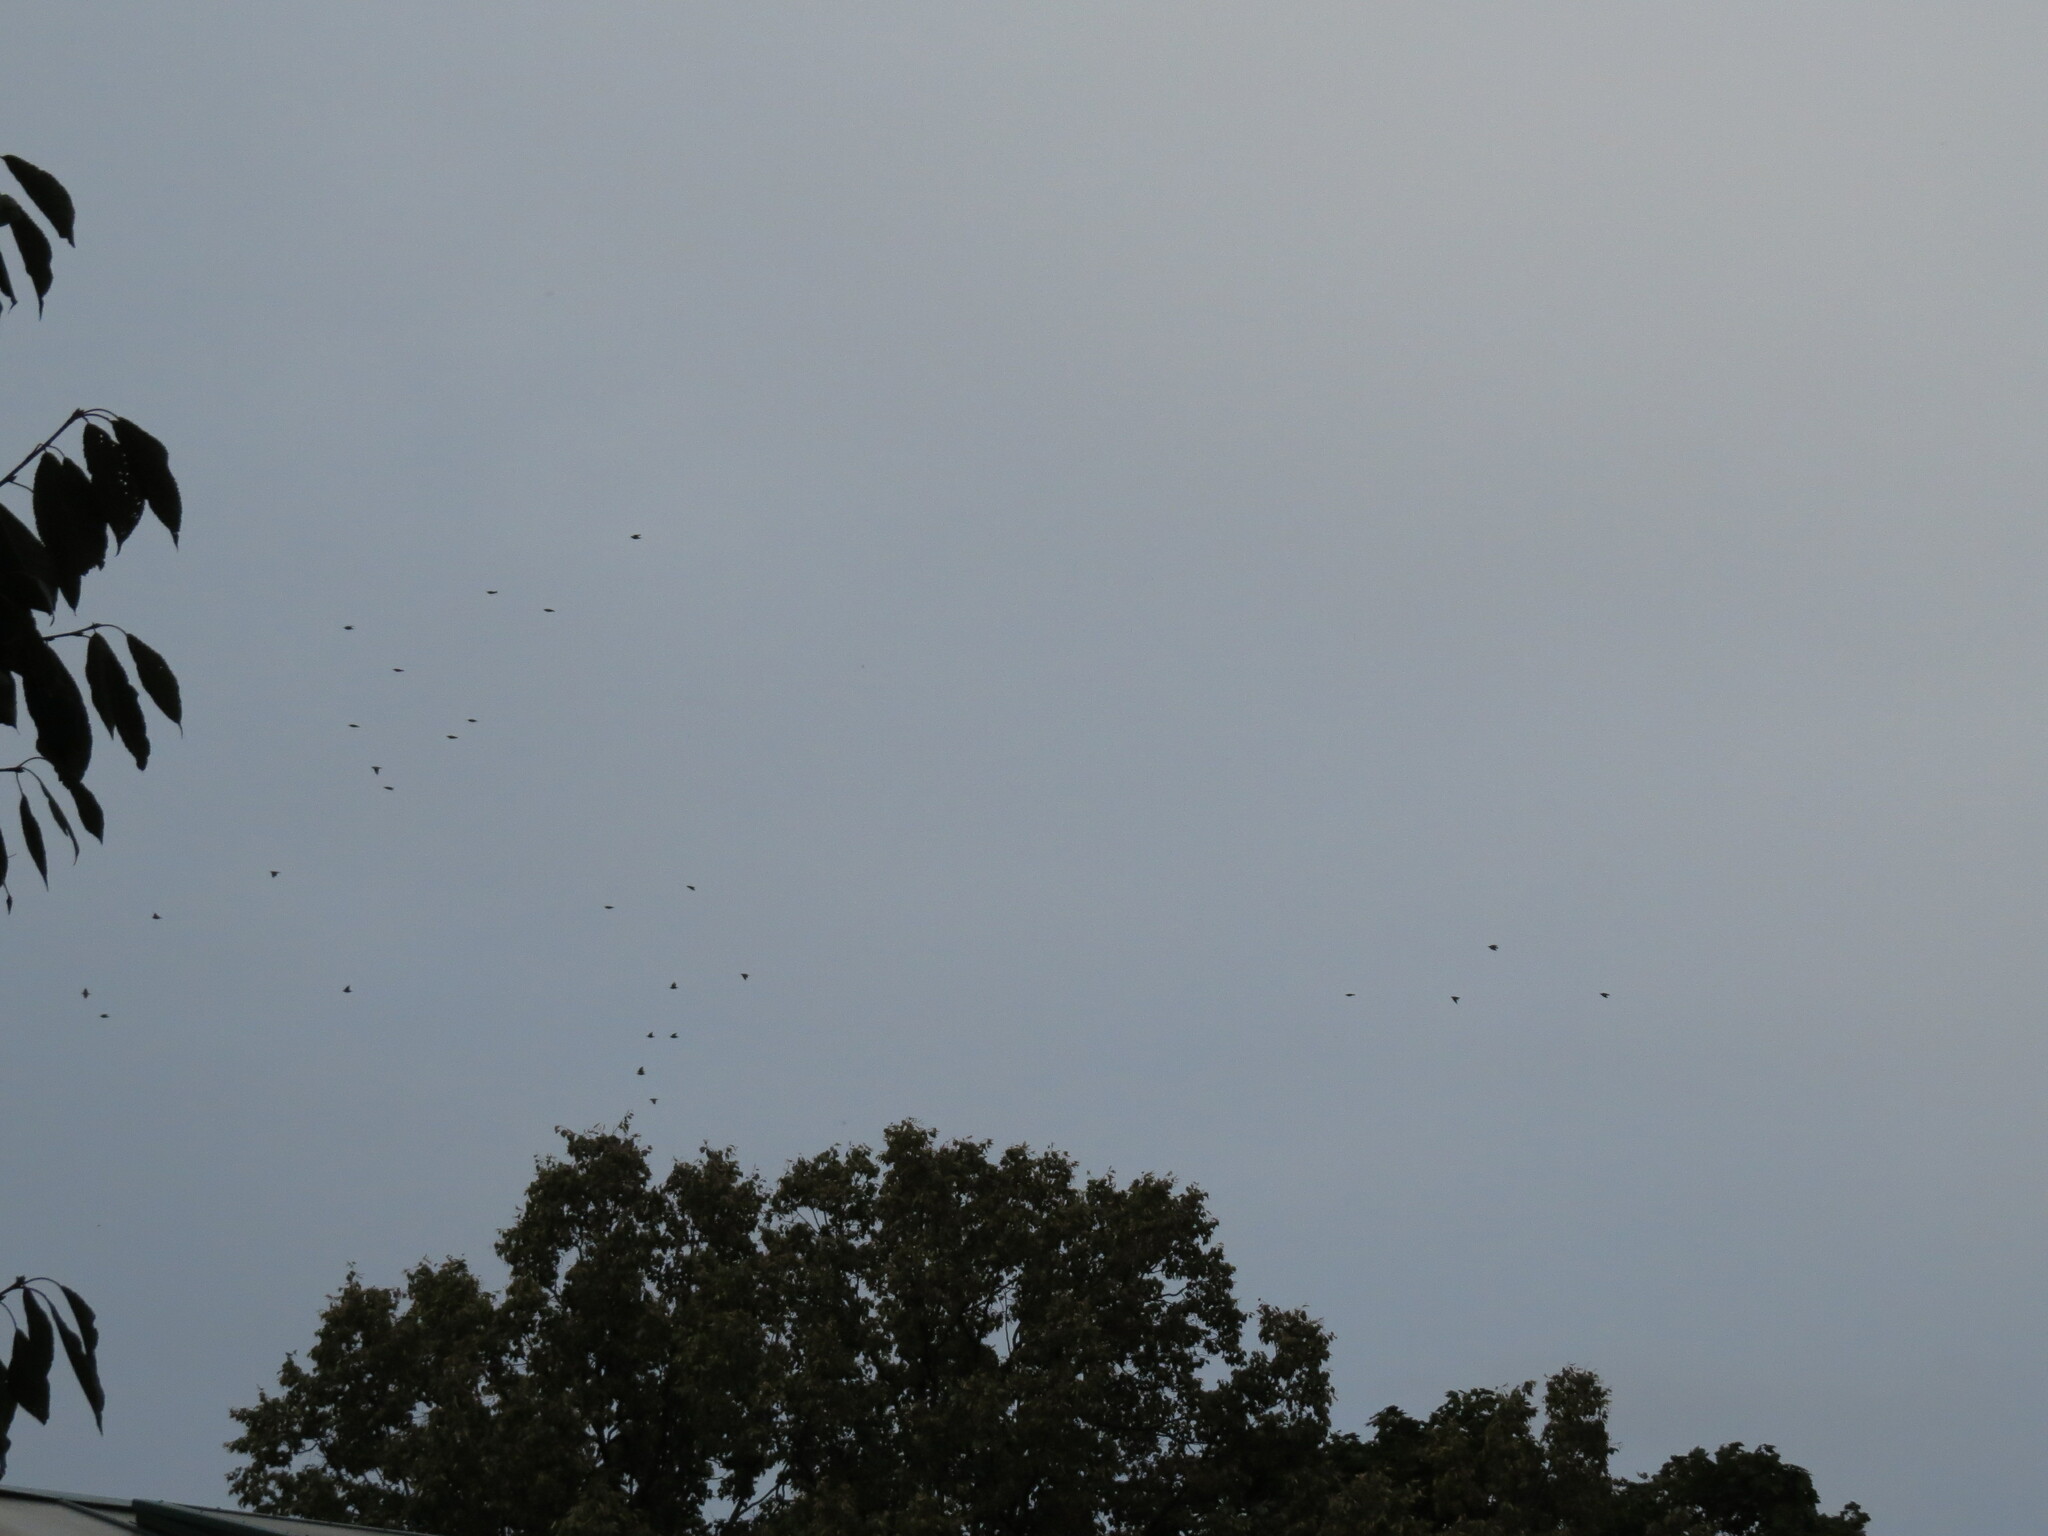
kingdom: Animalia
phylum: Chordata
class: Aves
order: Passeriformes
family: Sturnidae
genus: Sturnus
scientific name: Sturnus vulgaris
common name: Common starling
